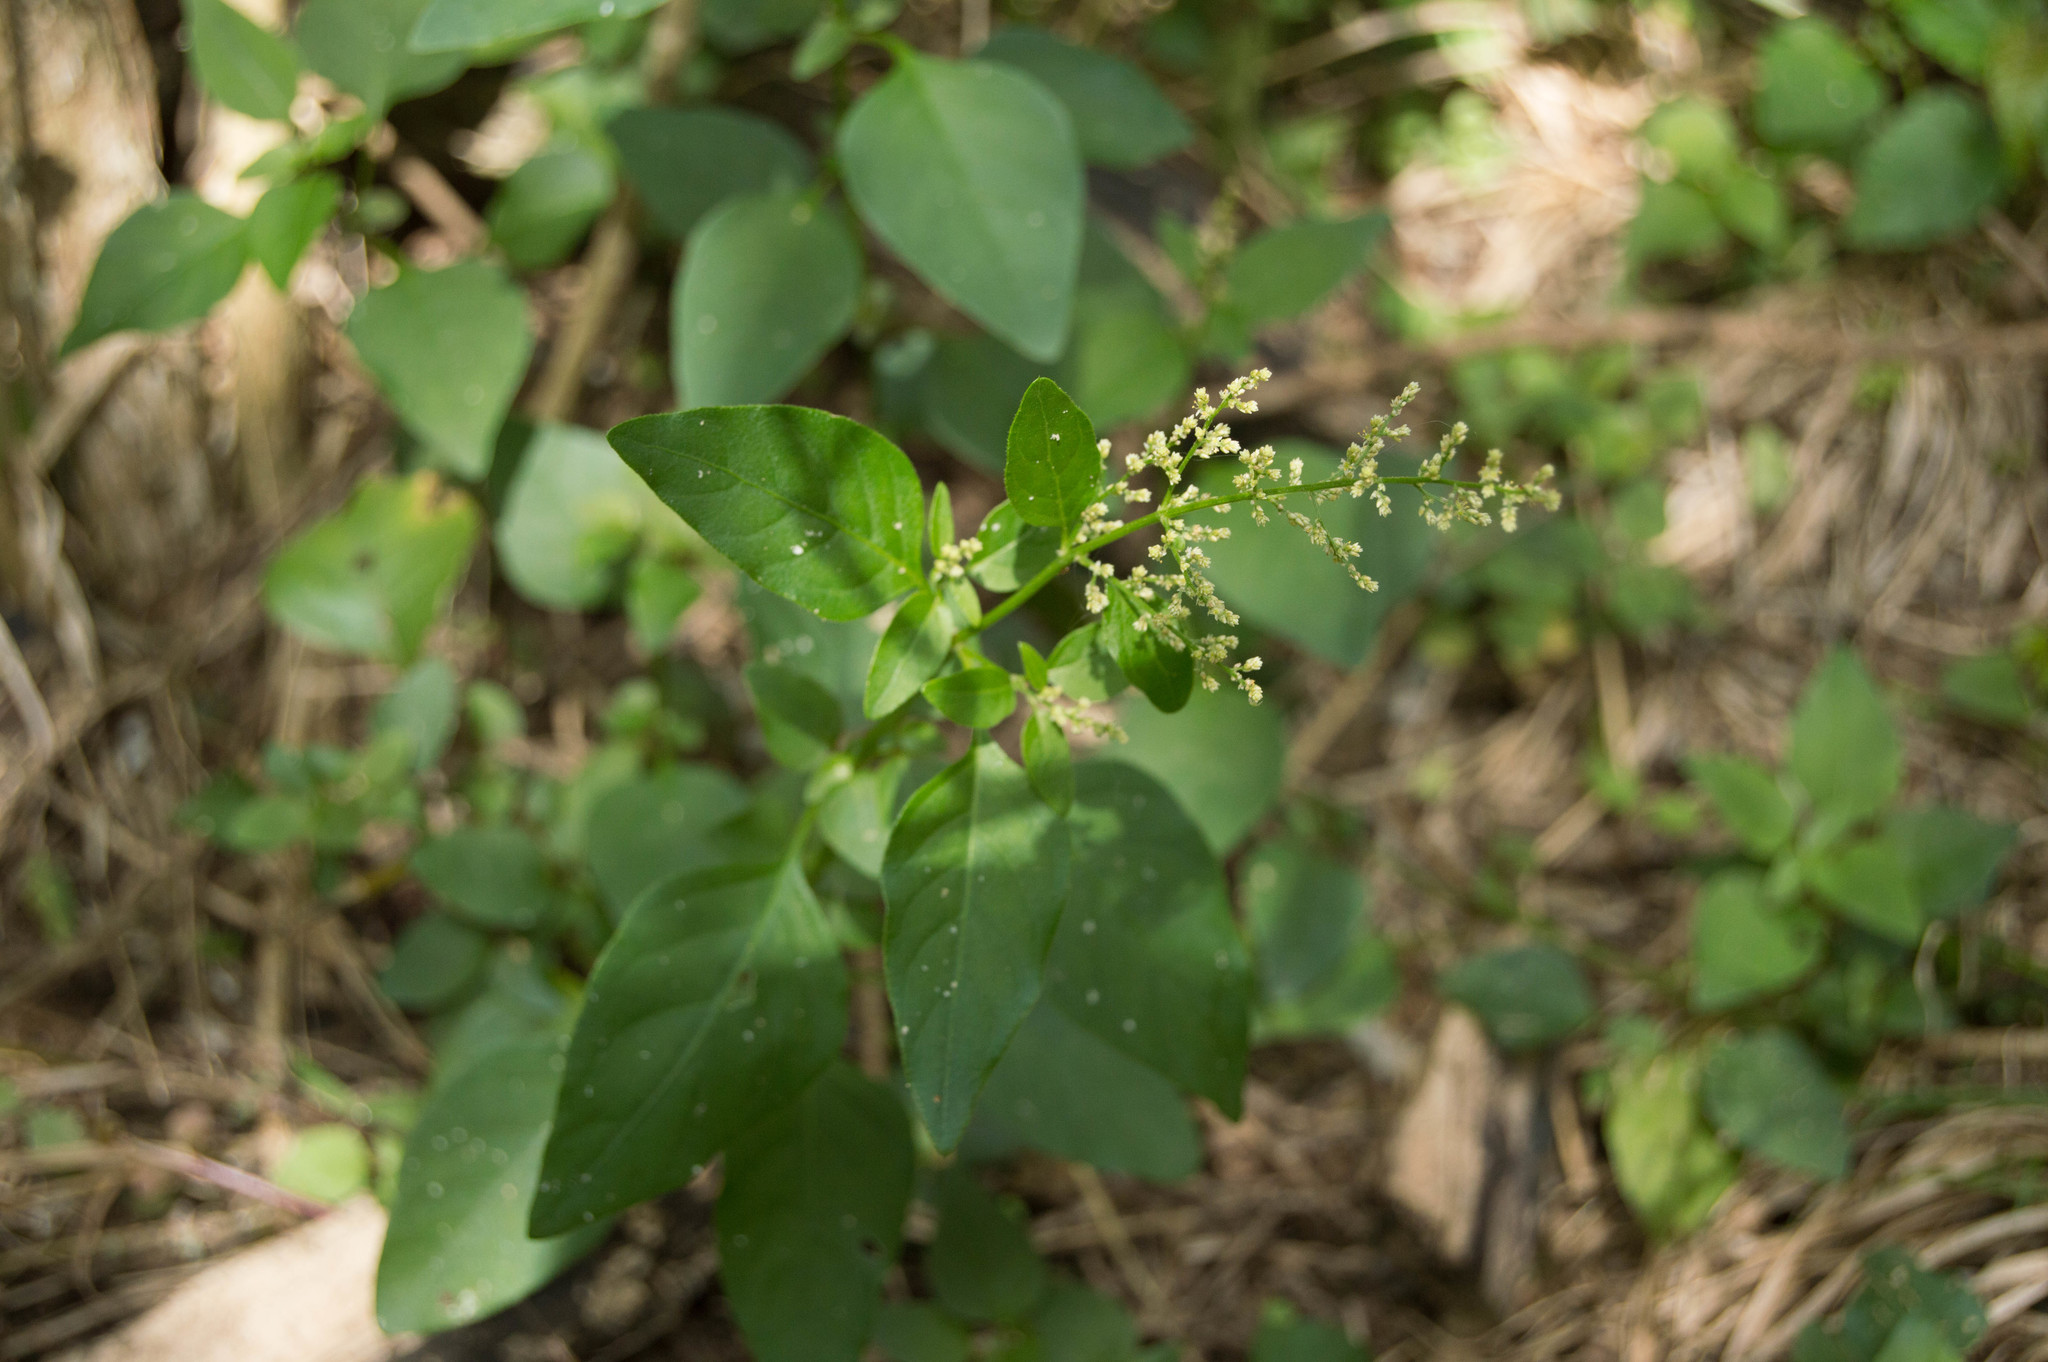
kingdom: Plantae
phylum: Tracheophyta
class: Magnoliopsida
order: Caryophyllales
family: Amaranthaceae
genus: Iresine
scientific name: Iresine diffusa
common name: Juba's-bush
